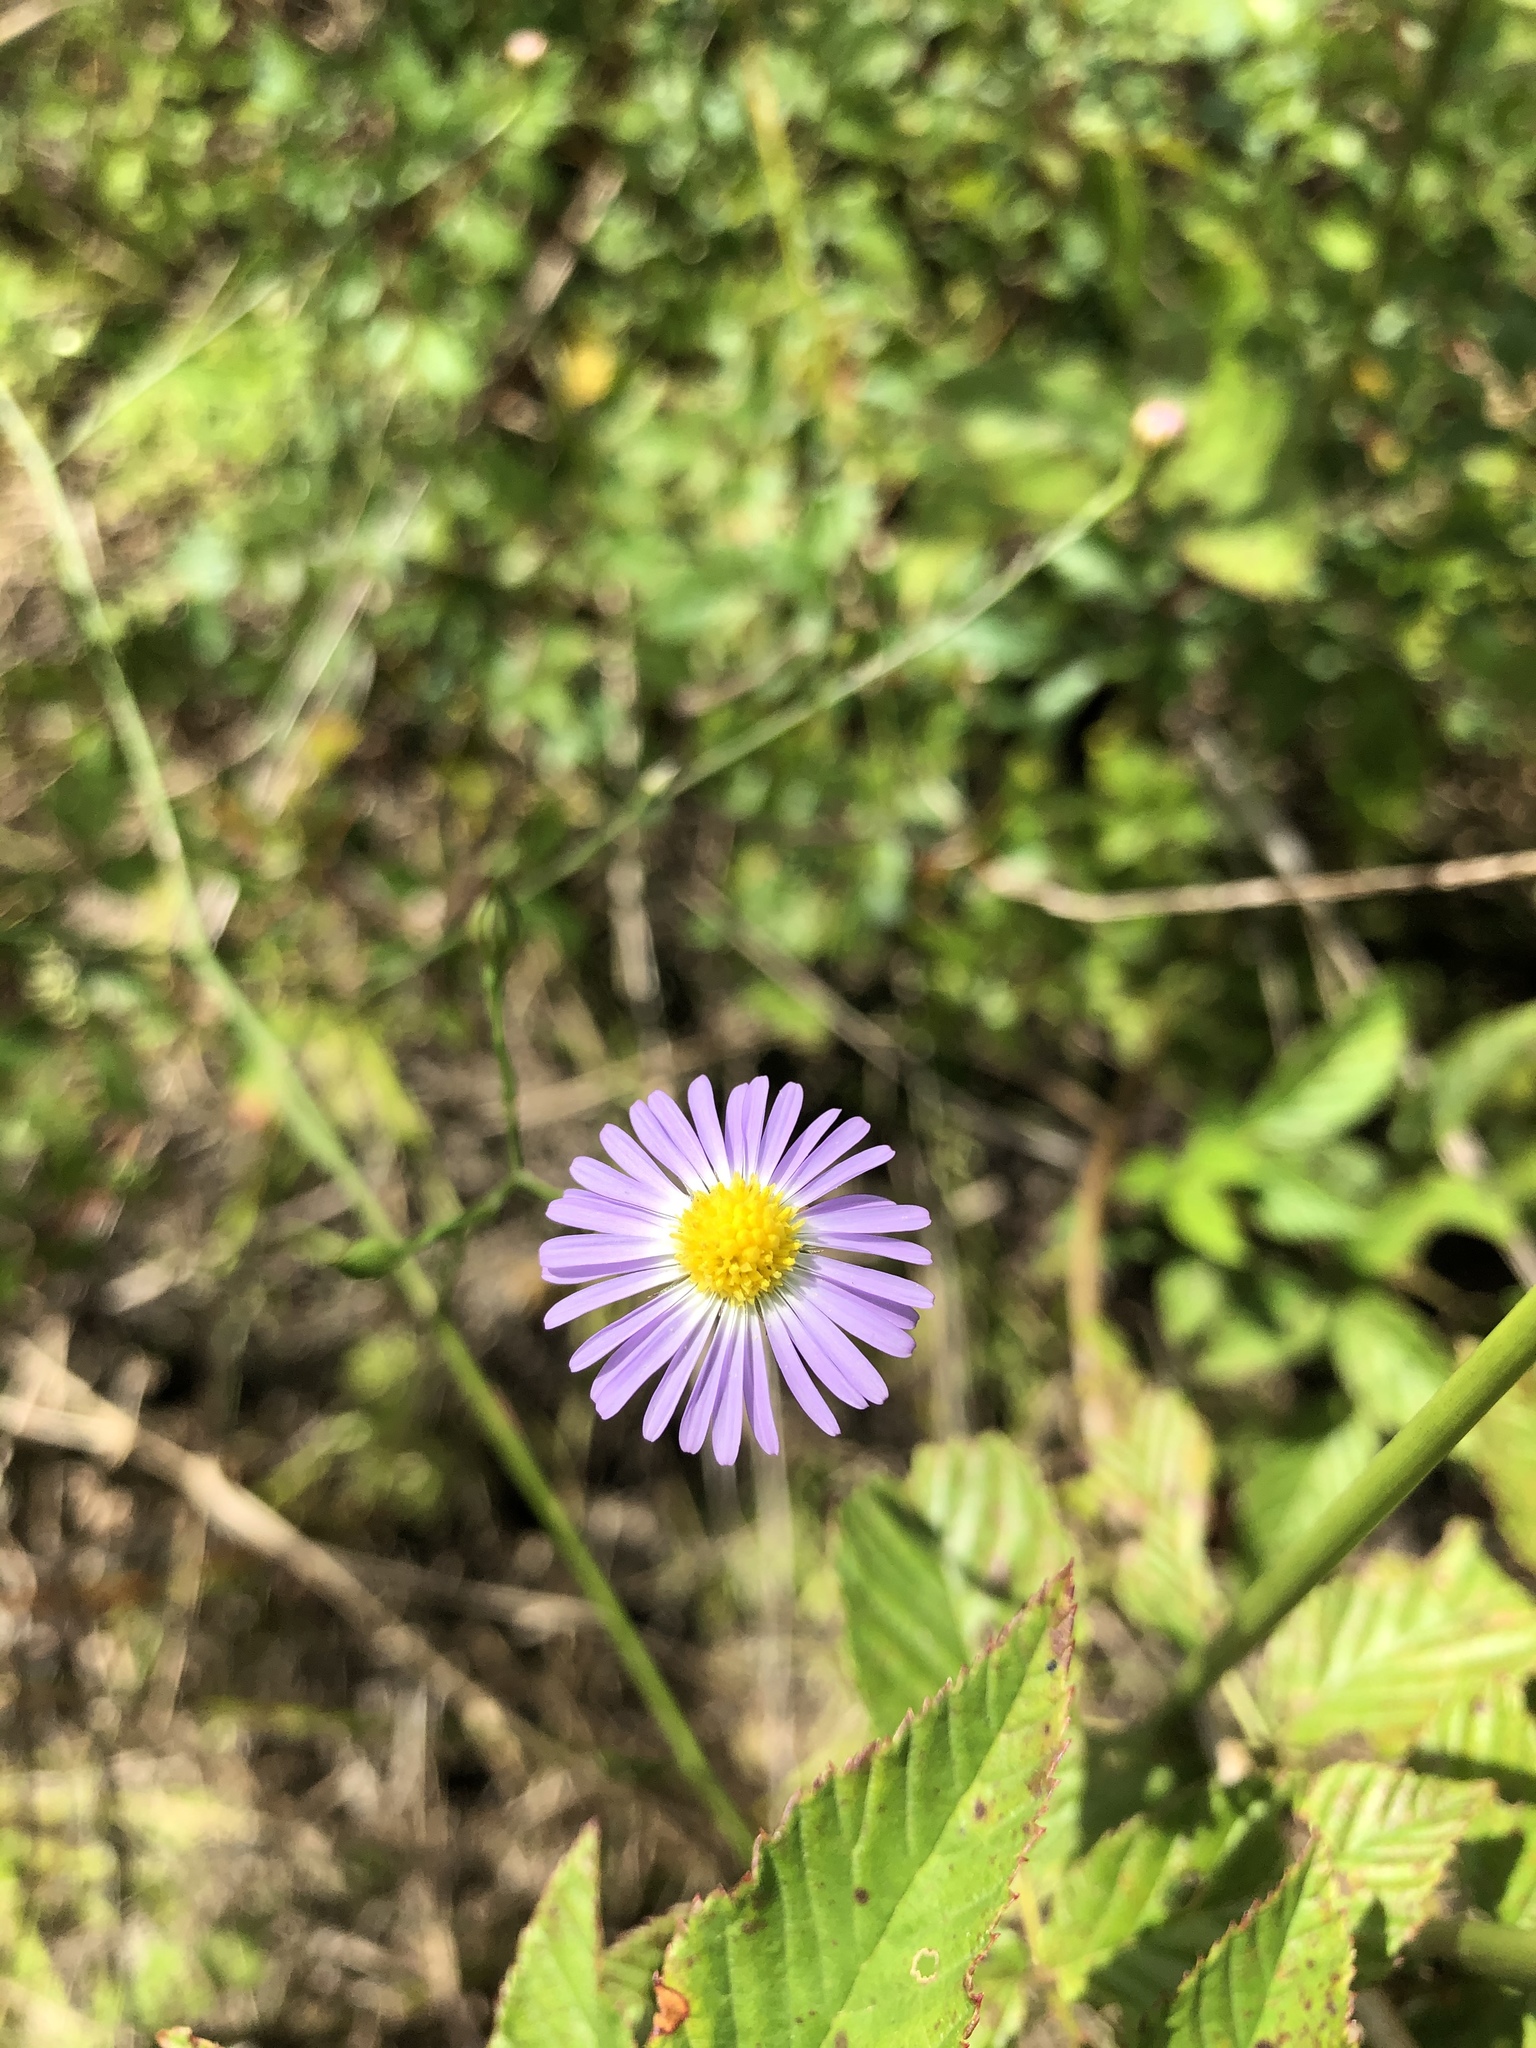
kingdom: Plantae
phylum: Tracheophyta
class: Magnoliopsida
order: Asterales
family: Asteraceae
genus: Symphyotrichum
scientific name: Symphyotrichum divaricatum
